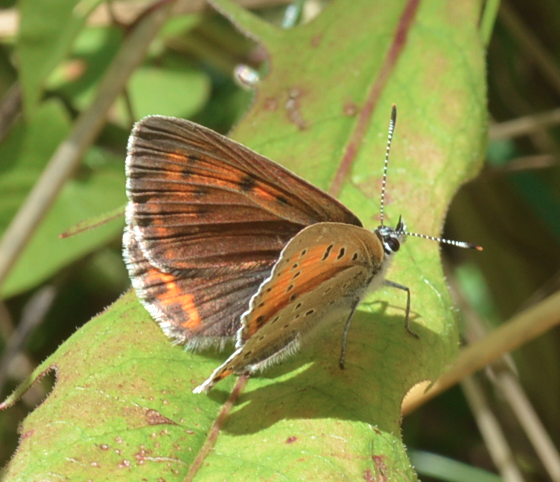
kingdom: Animalia
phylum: Arthropoda
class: Insecta
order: Lepidoptera
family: Lycaenidae
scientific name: Lycaenidae
